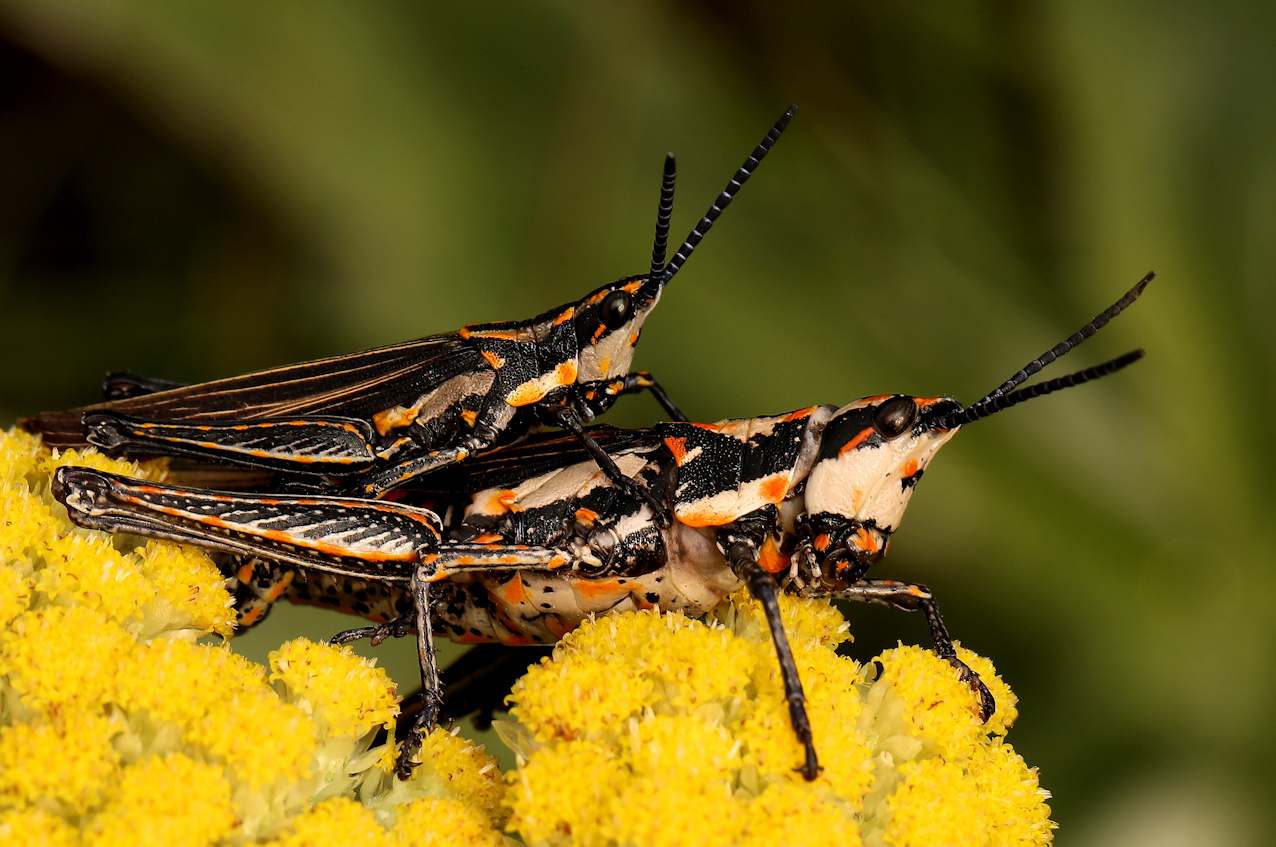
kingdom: Animalia
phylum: Arthropoda
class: Insecta
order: Orthoptera
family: Pyrgomorphidae
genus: Ochrophlebia
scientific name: Ochrophlebia cafra
